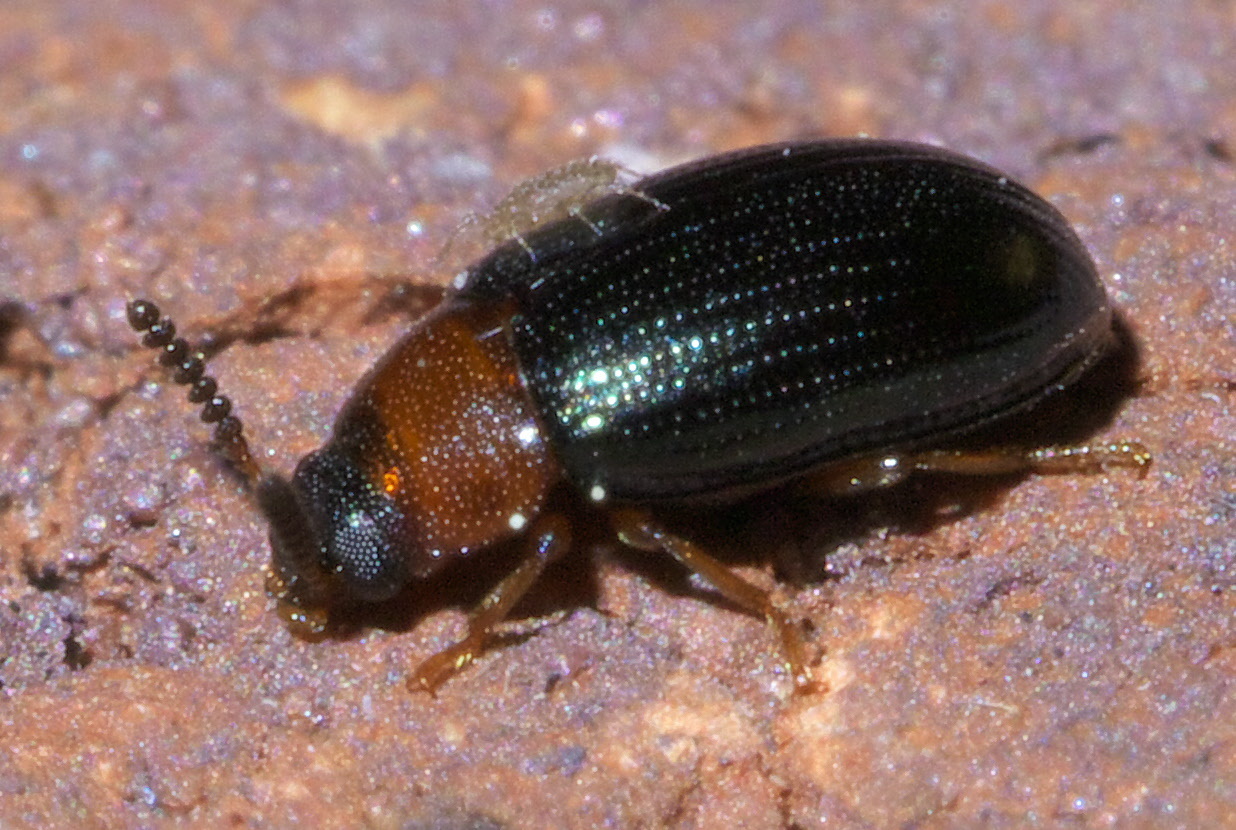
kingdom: Animalia
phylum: Arthropoda
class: Insecta
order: Coleoptera
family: Tenebrionidae
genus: Neomida
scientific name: Neomida bicornis
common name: Two-horned darkling beetle
